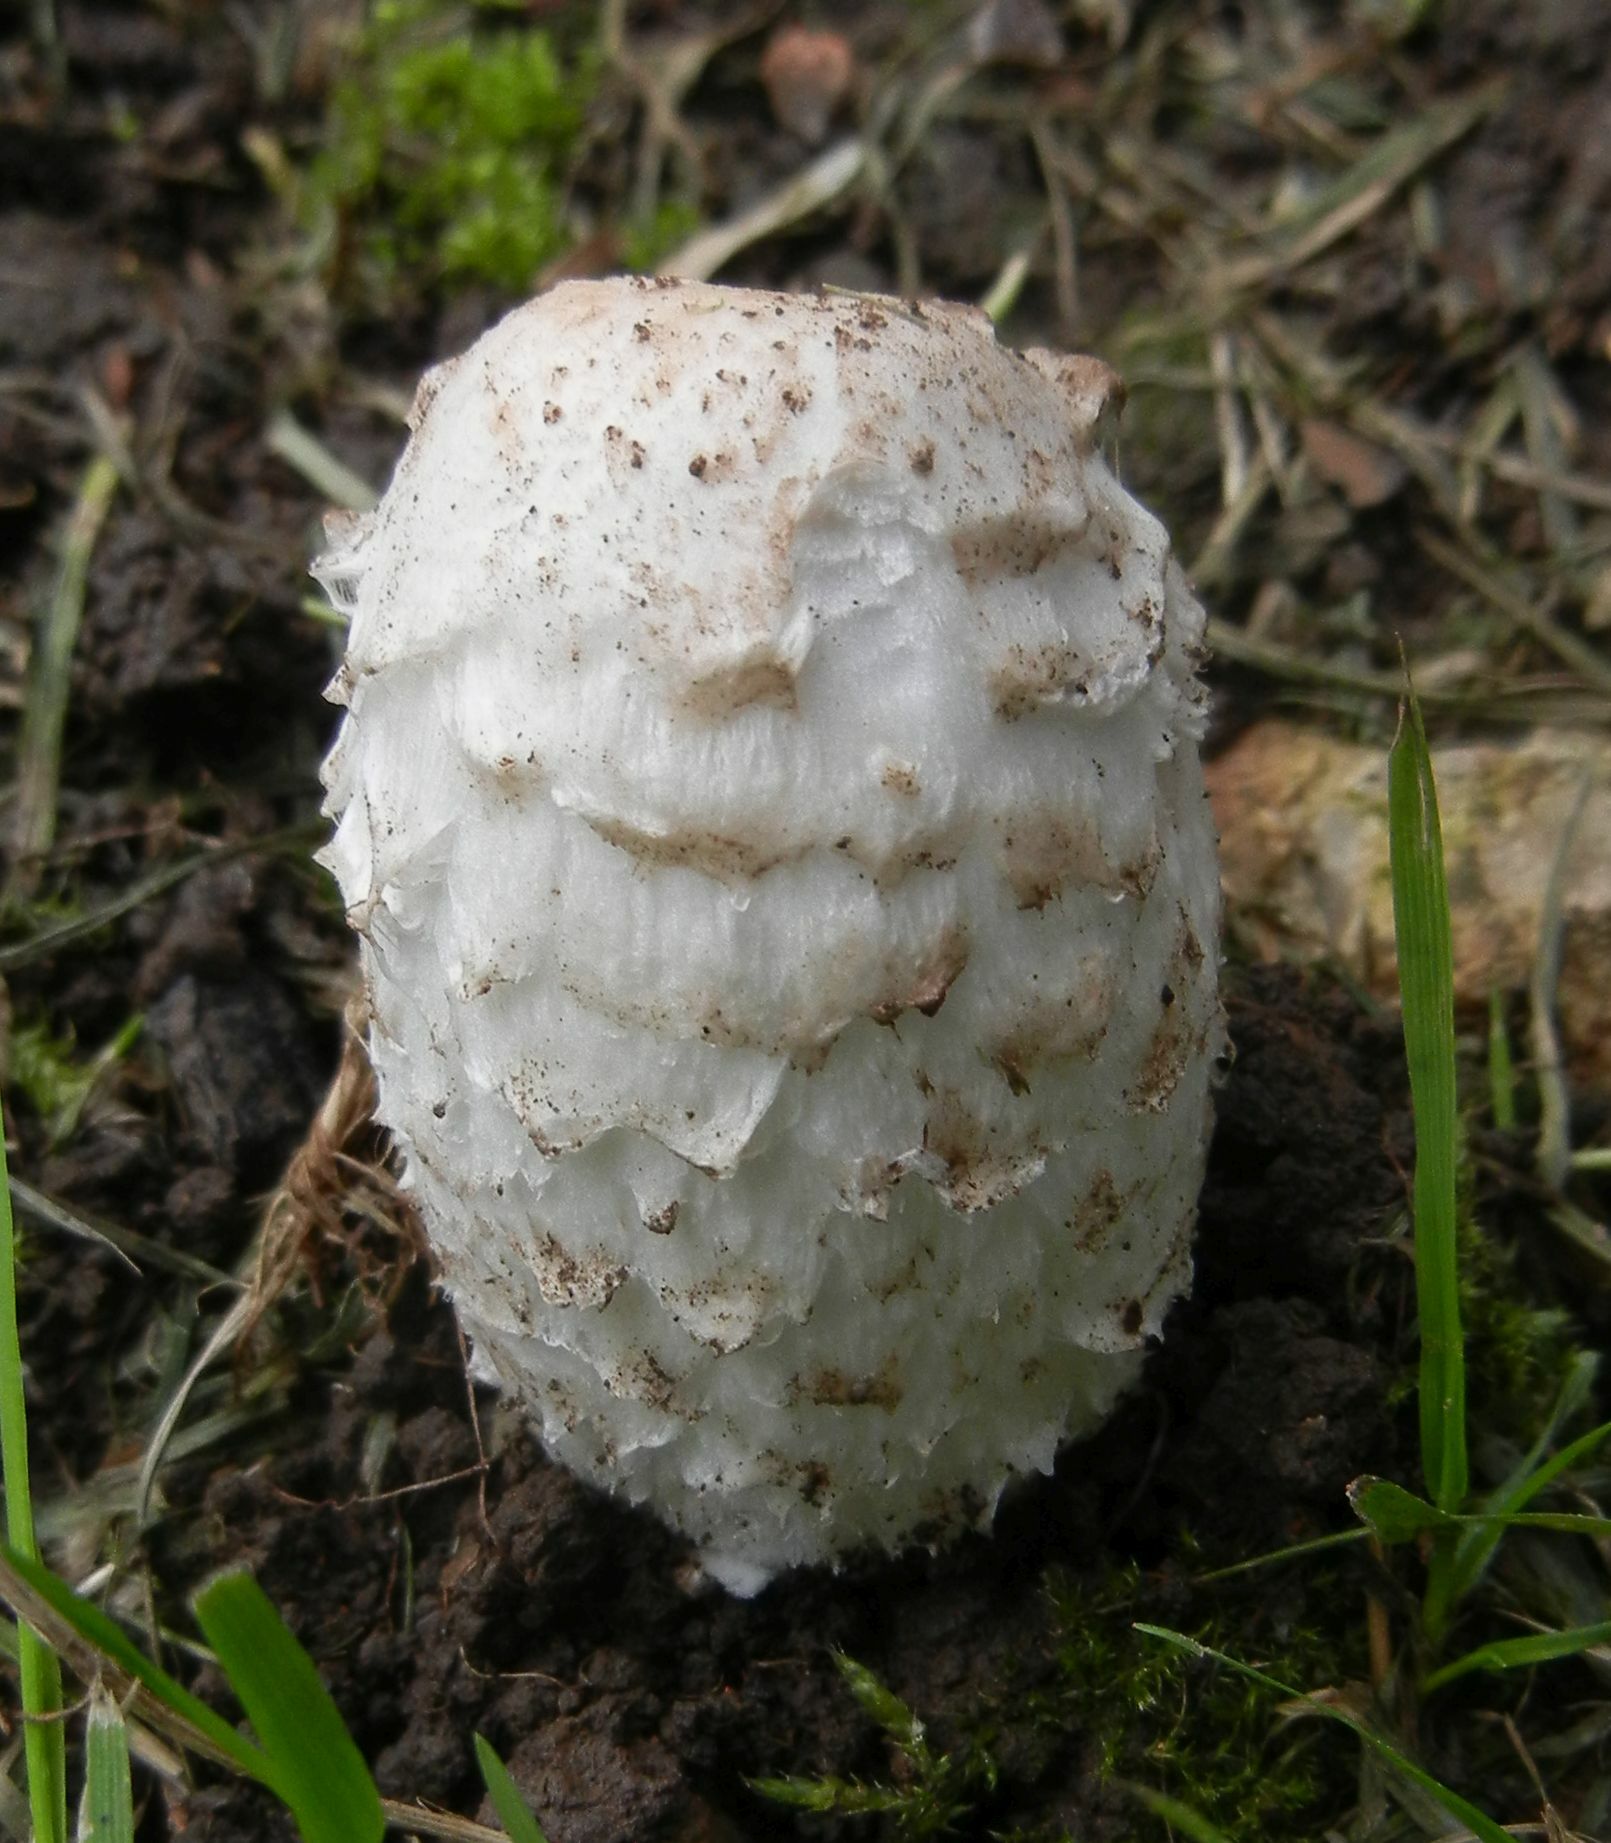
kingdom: Fungi
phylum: Basidiomycota
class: Agaricomycetes
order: Agaricales
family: Agaricaceae
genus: Coprinus
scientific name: Coprinus comatus
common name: Lawyer's wig
